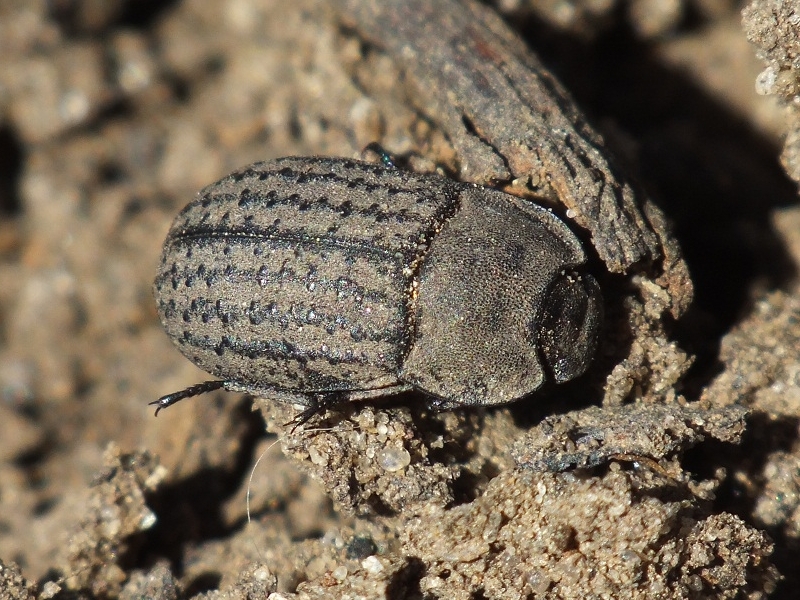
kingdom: Animalia
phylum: Arthropoda
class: Insecta
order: Coleoptera
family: Tenebrionidae
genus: Opatrum
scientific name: Opatrum sabulosum
